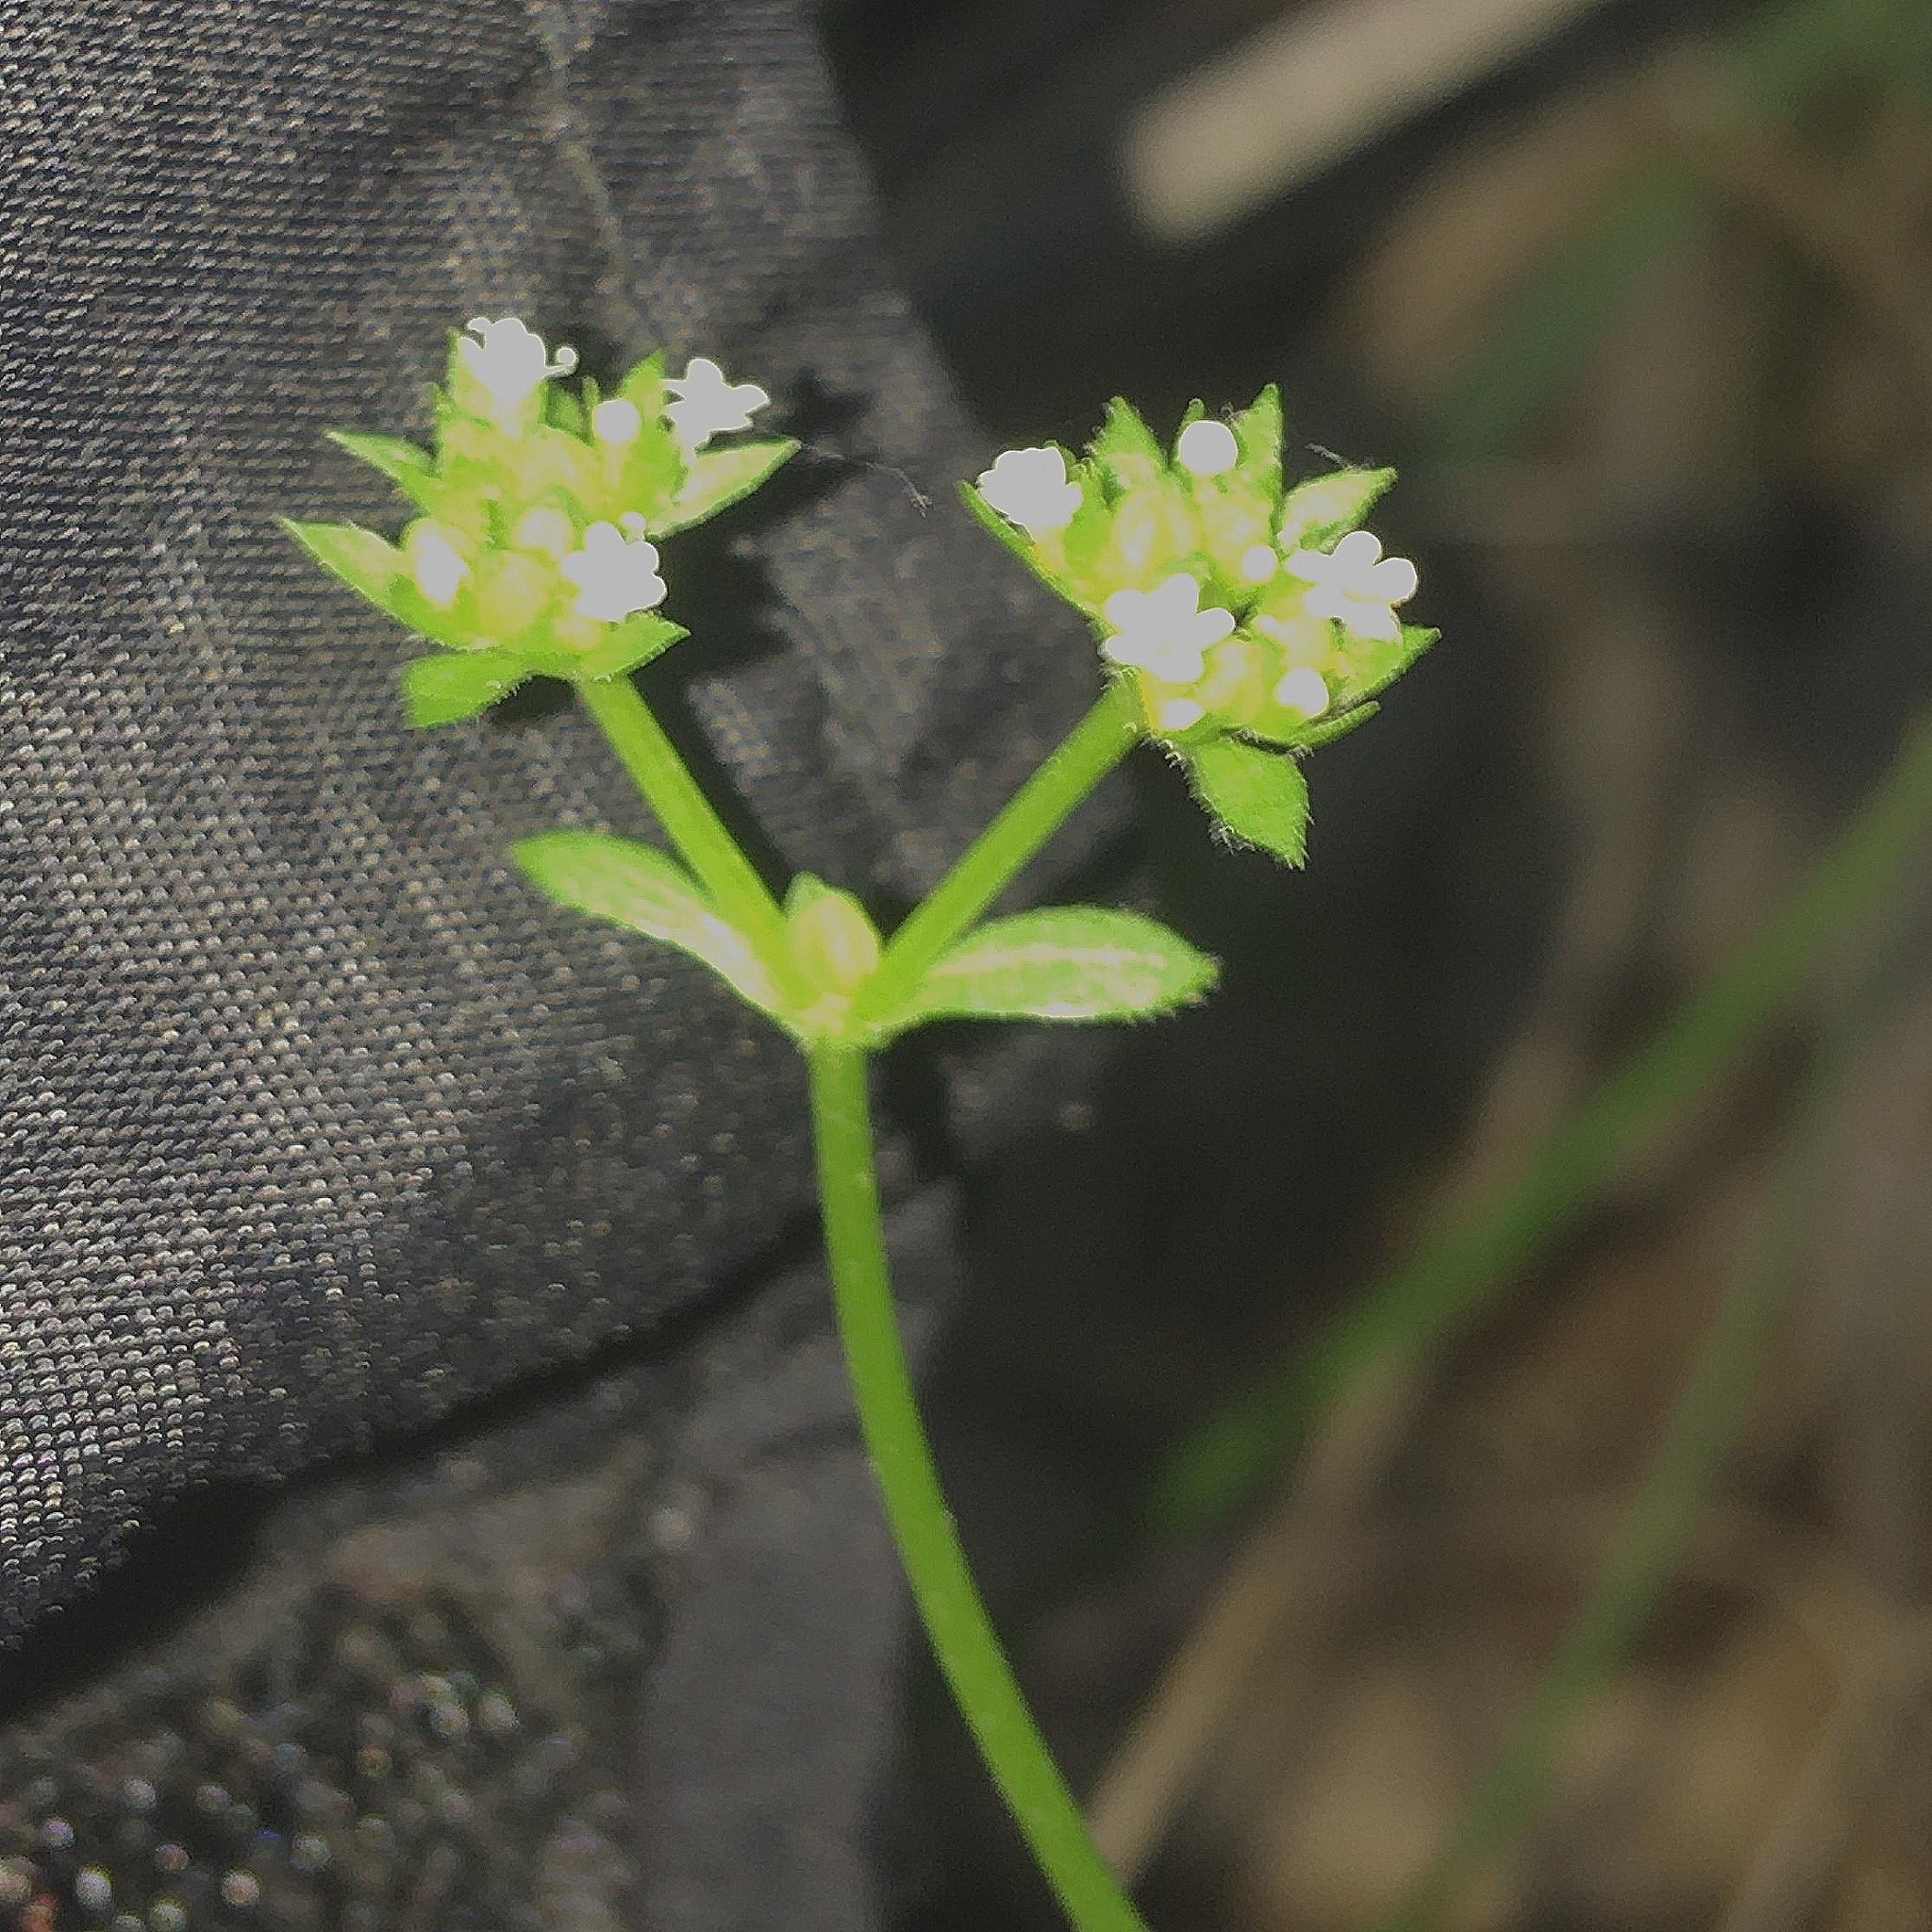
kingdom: Plantae
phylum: Tracheophyta
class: Magnoliopsida
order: Dipsacales
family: Caprifoliaceae
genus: Valerianella
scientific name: Valerianella radiata
